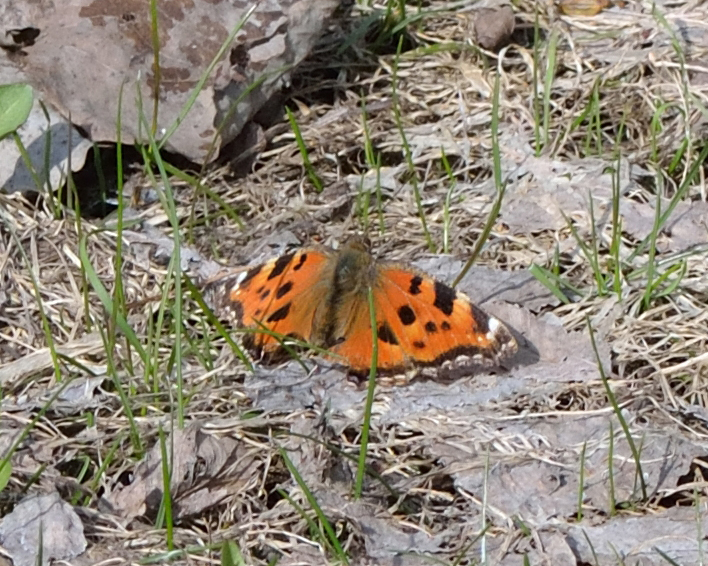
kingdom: Animalia
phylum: Arthropoda
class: Insecta
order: Lepidoptera
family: Nymphalidae
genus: Nymphalis
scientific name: Nymphalis xanthomelas
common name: Scarce tortoiseshell
